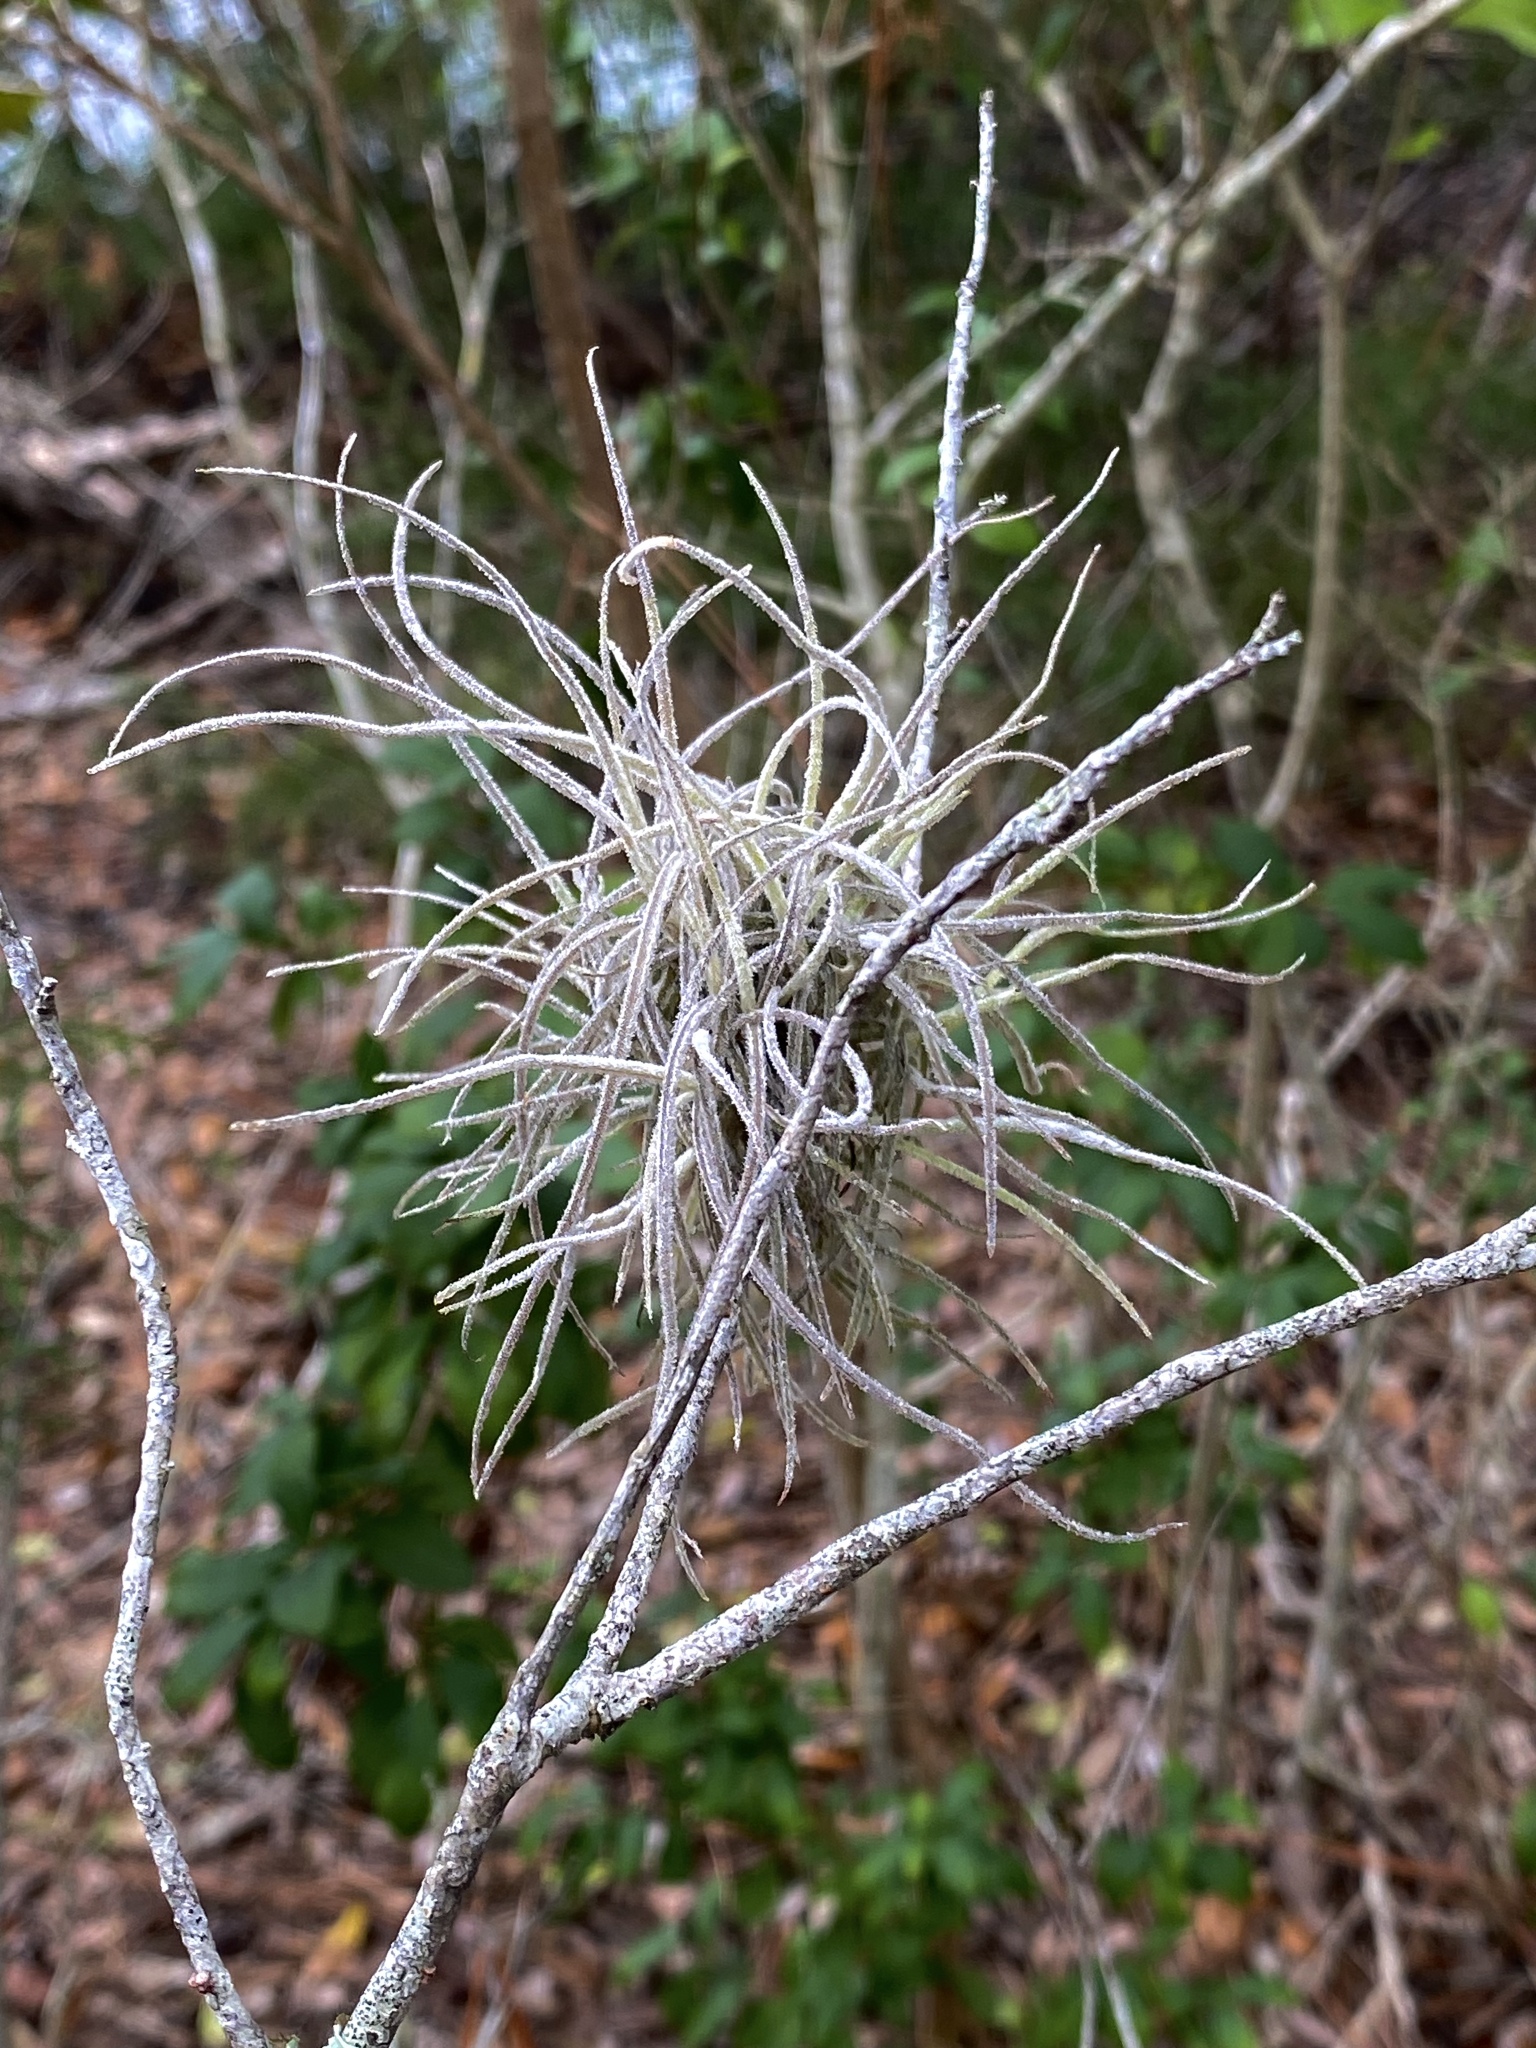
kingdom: Plantae
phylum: Tracheophyta
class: Liliopsida
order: Poales
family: Bromeliaceae
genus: Tillandsia
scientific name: Tillandsia recurvata
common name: Small ballmoss
